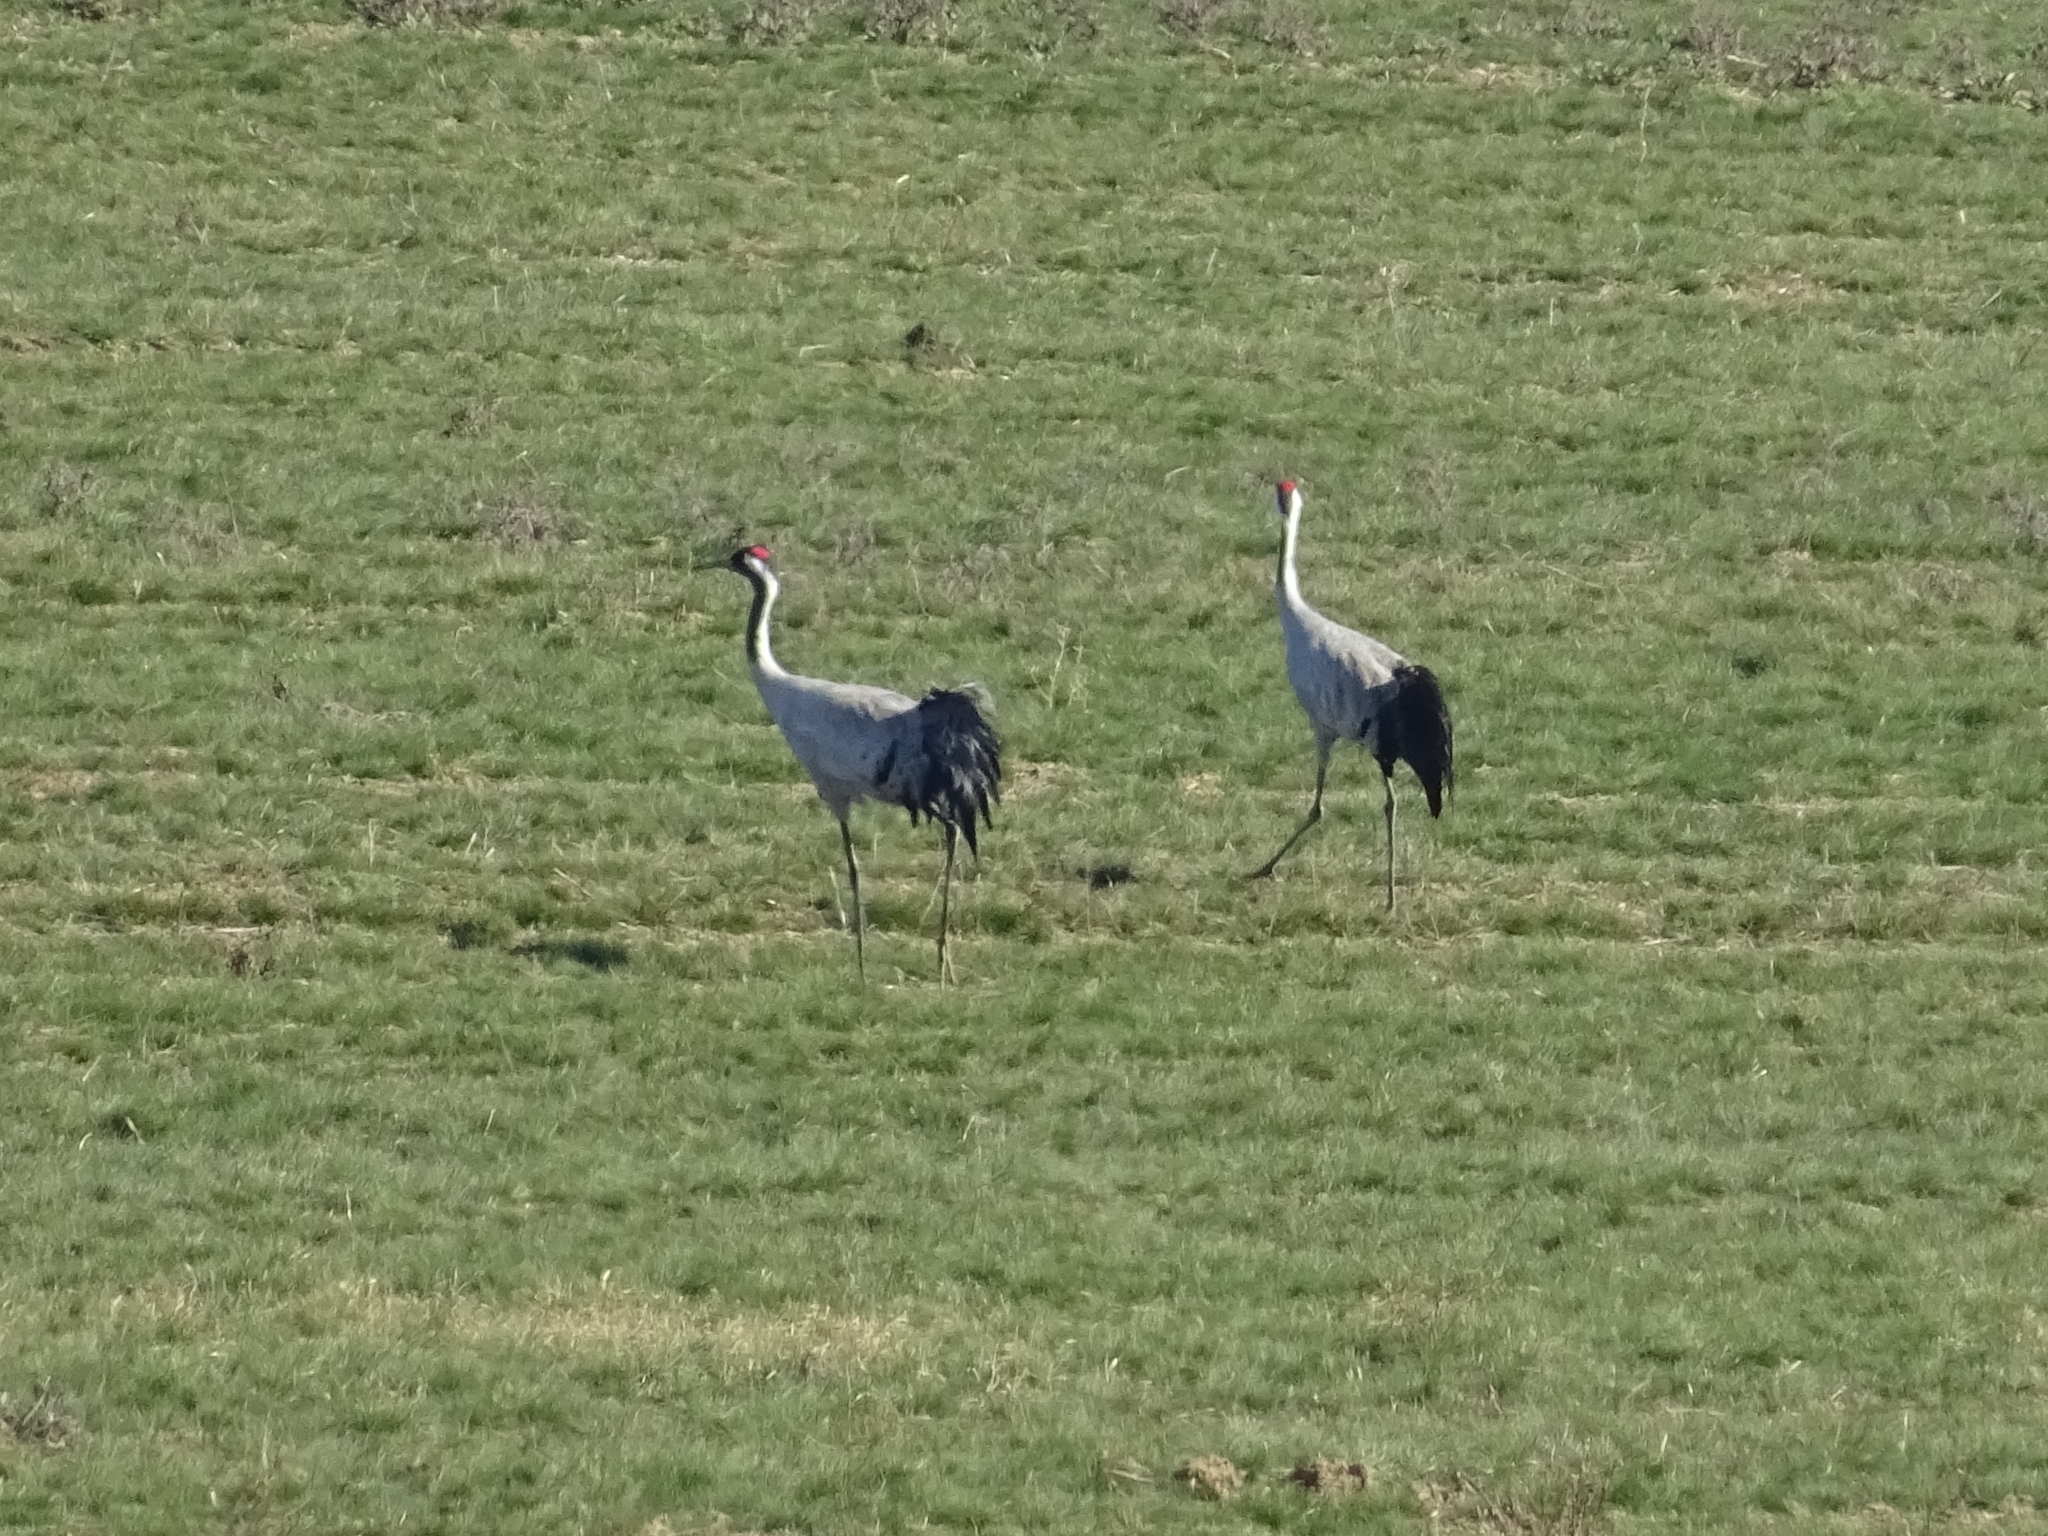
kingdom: Animalia
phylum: Chordata
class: Aves
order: Gruiformes
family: Gruidae
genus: Grus
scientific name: Grus grus
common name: Common crane
